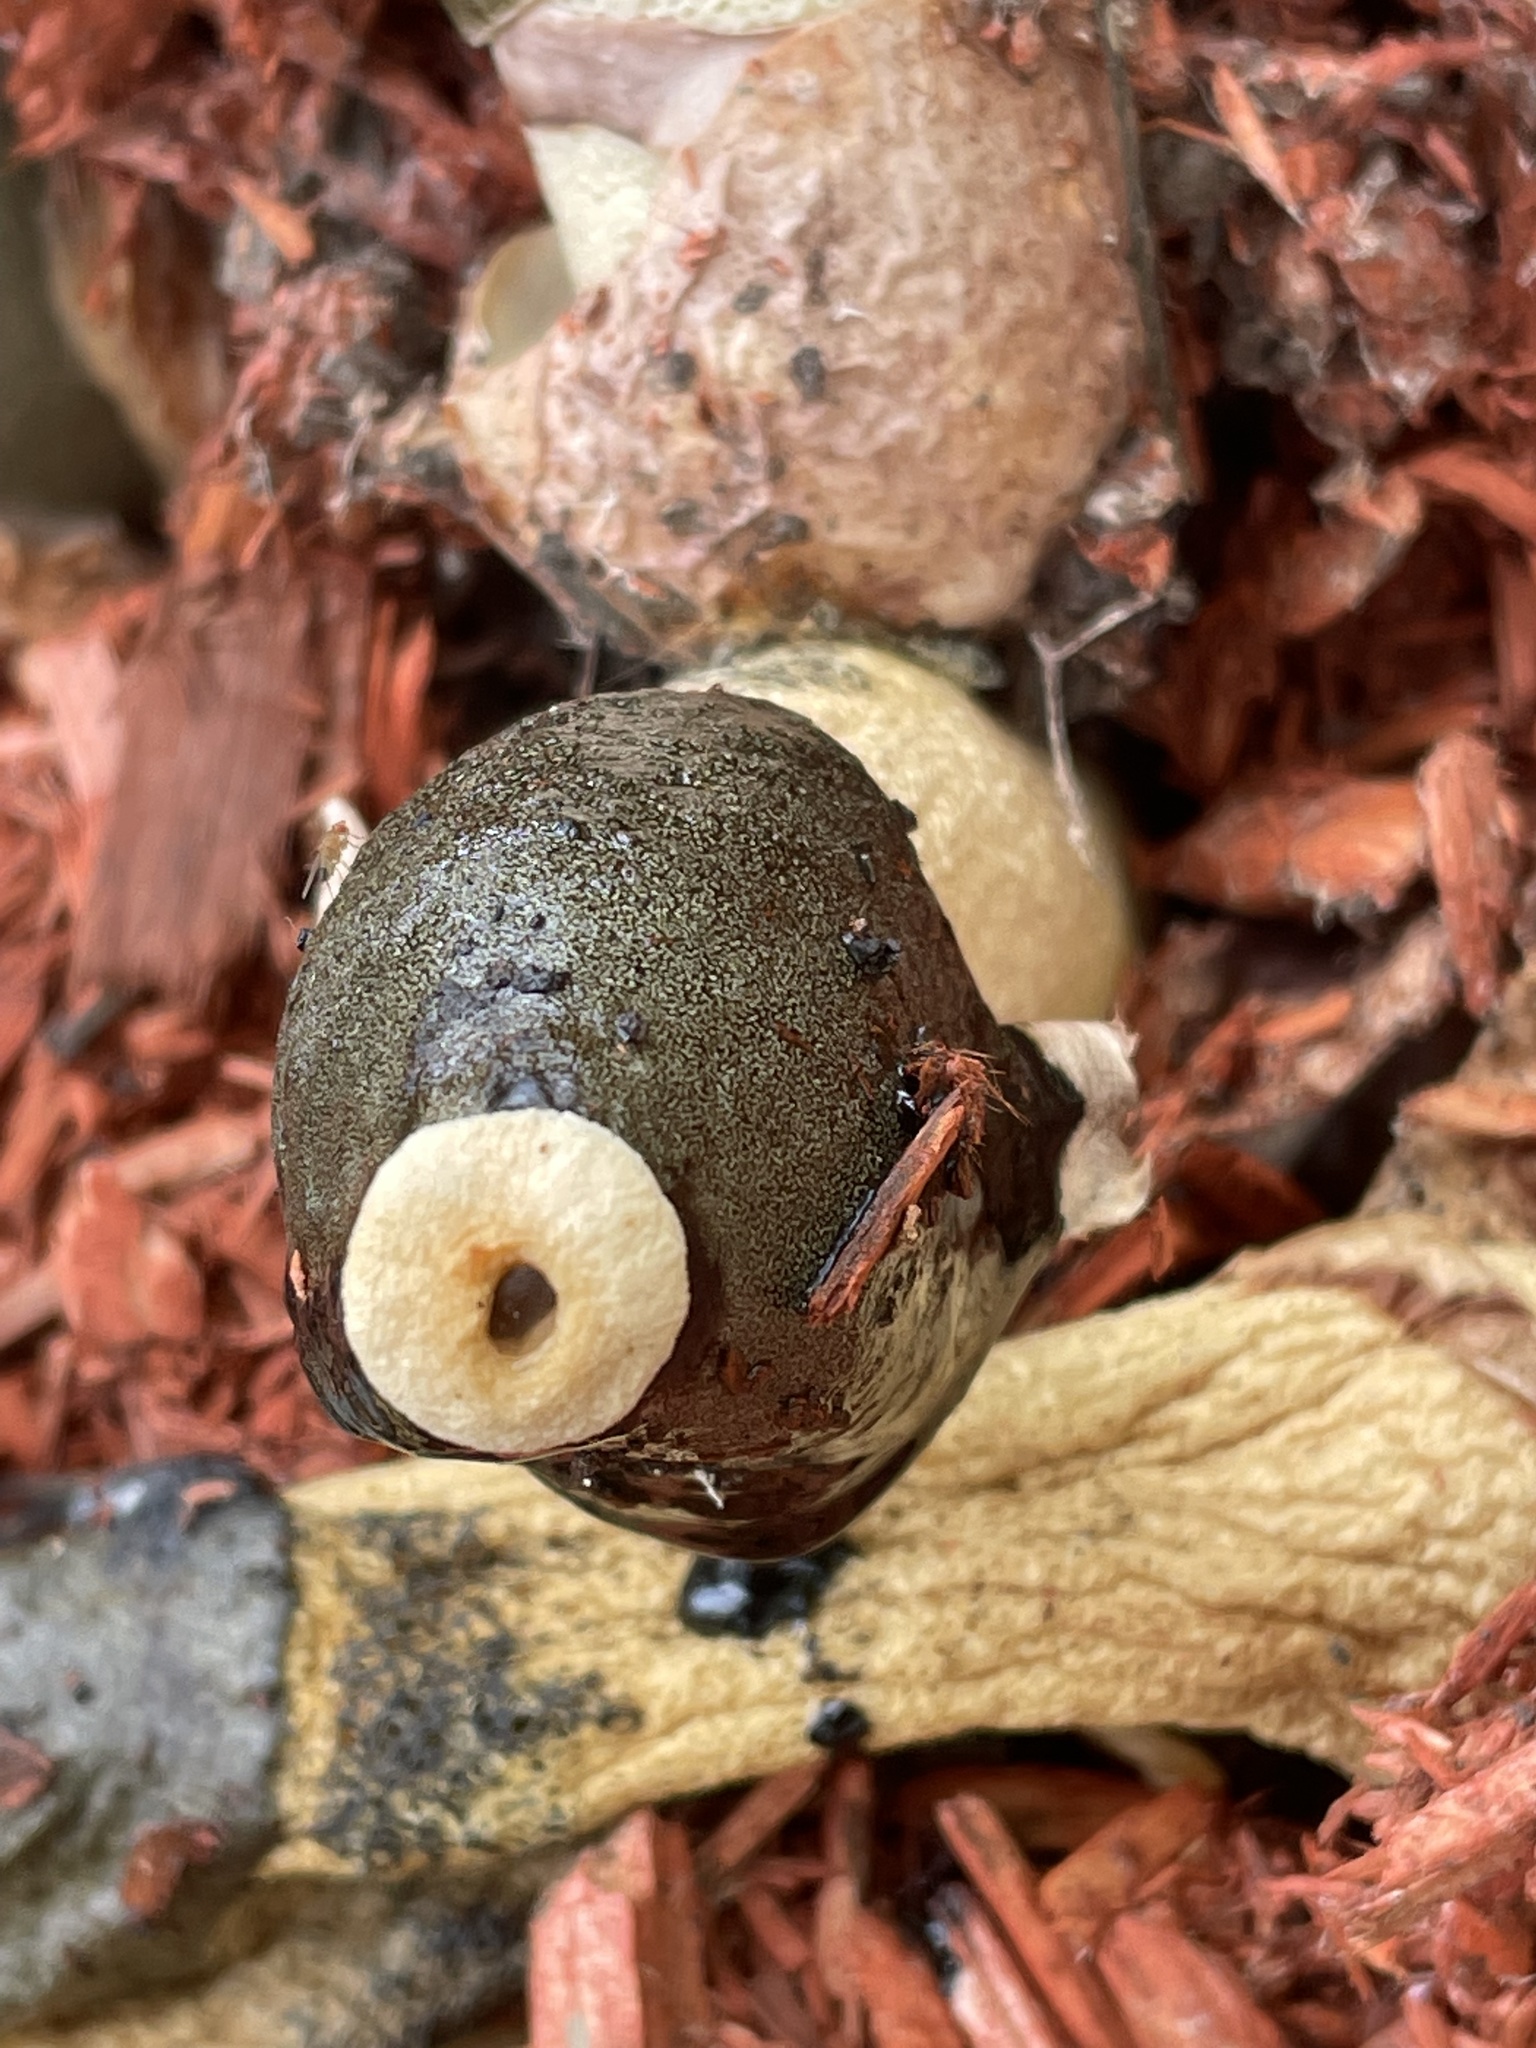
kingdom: Fungi
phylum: Basidiomycota
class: Agaricomycetes
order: Phallales
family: Phallaceae
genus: Phallus
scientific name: Phallus ravenelii
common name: Ravenel's stinkhorn
